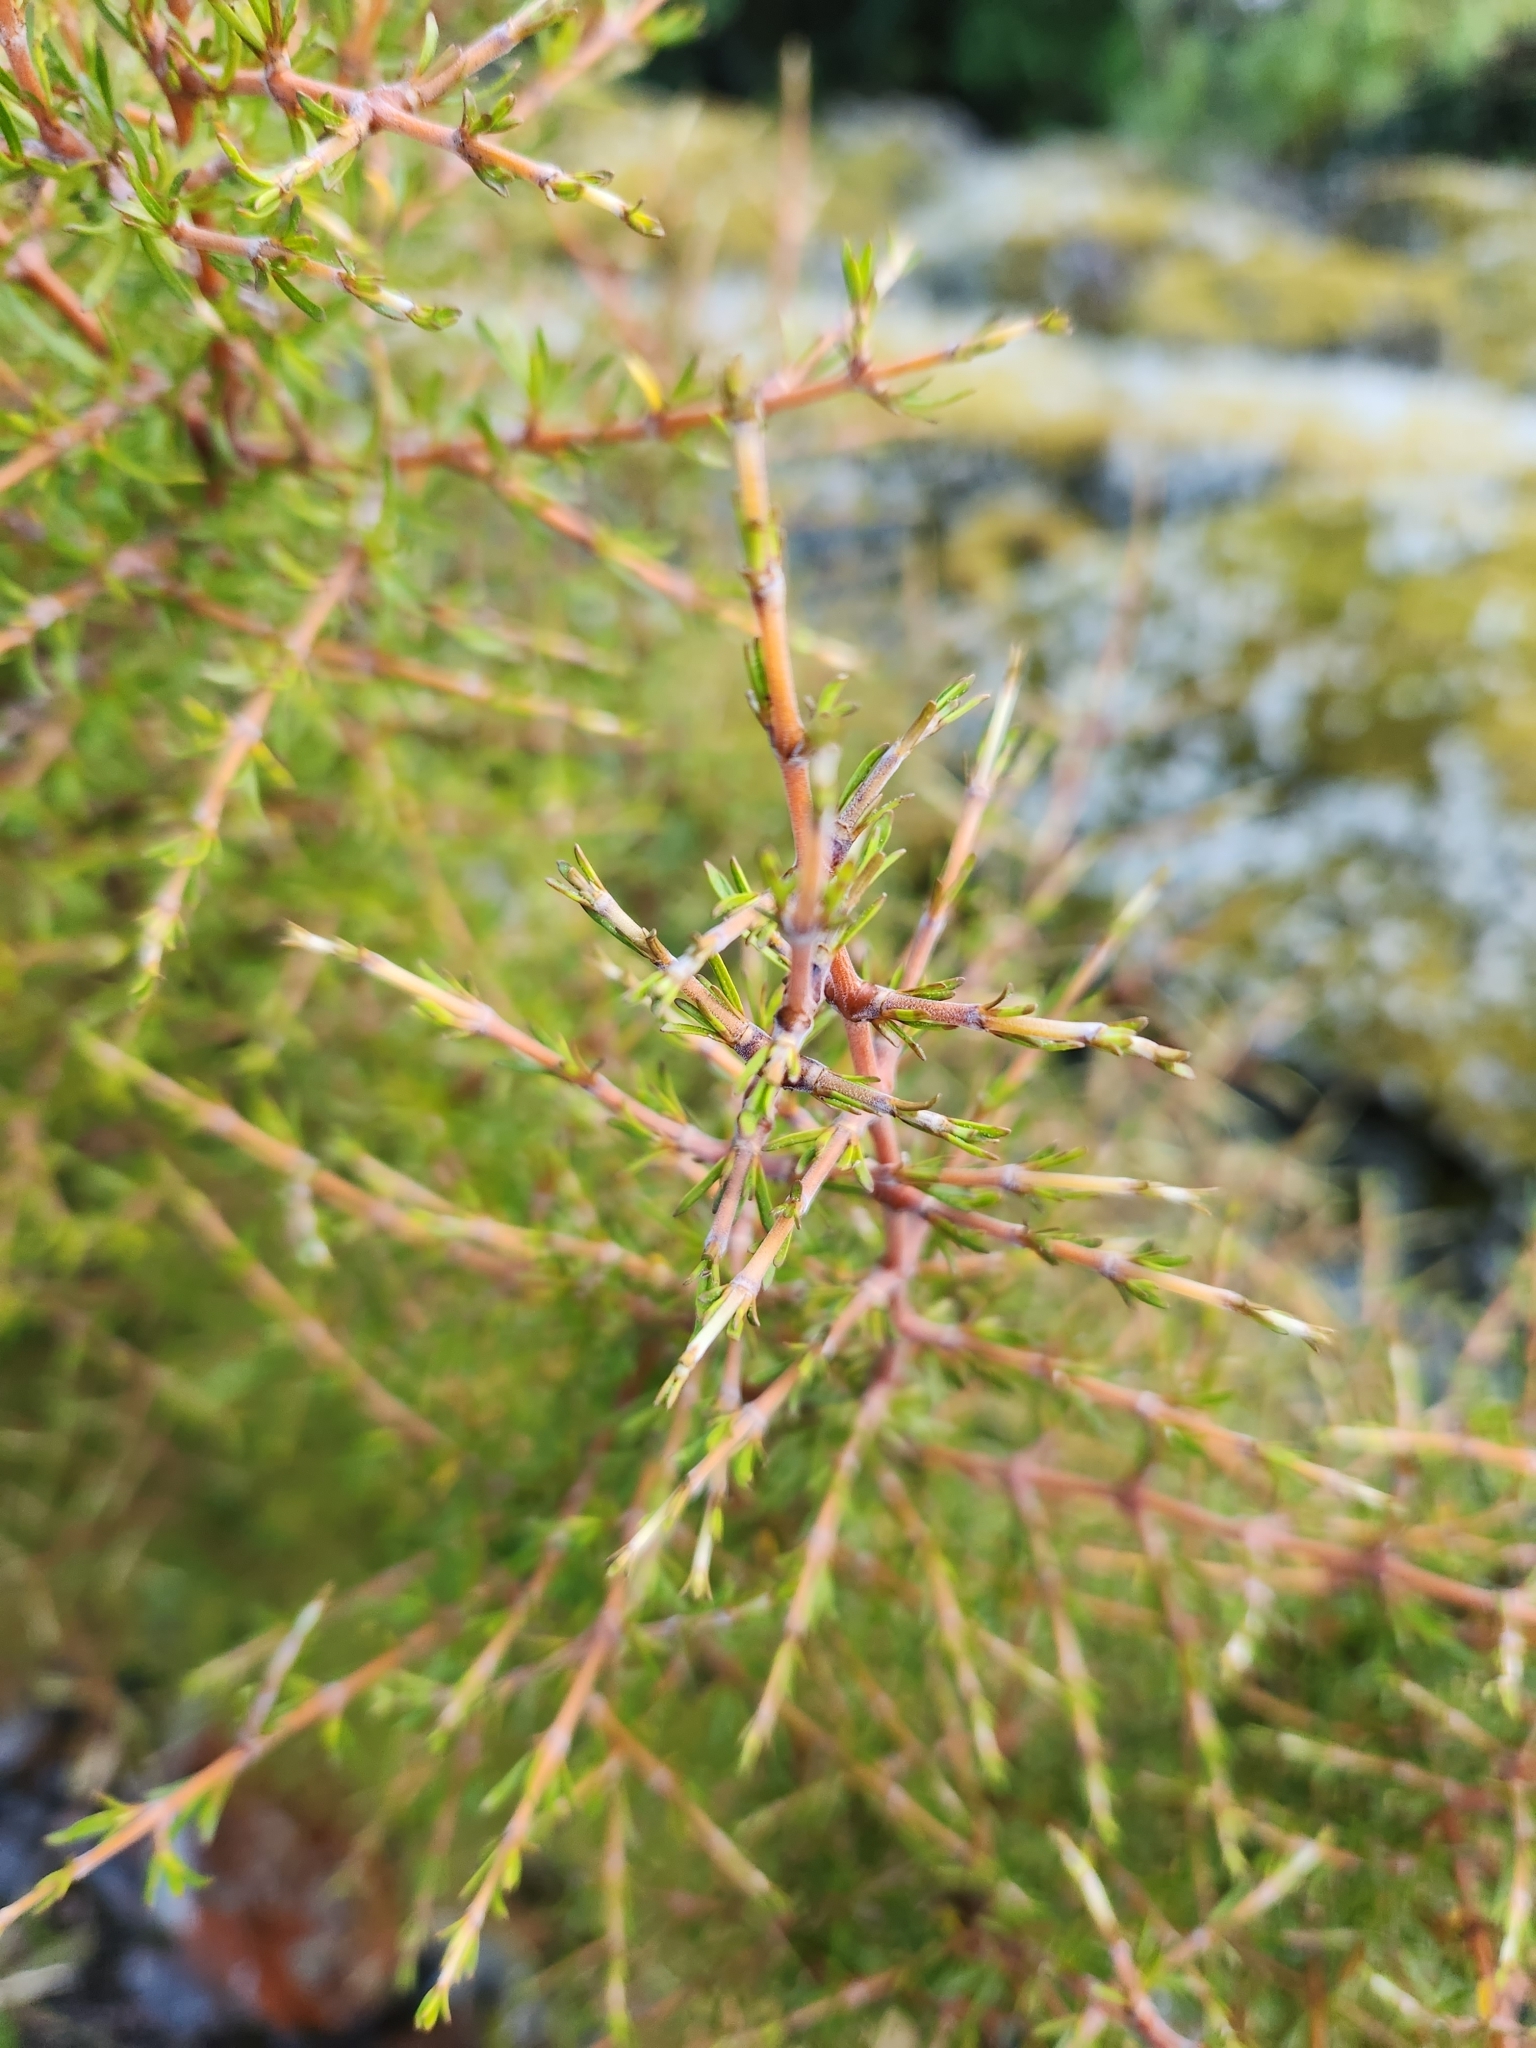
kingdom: Plantae
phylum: Tracheophyta
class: Magnoliopsida
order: Gentianales
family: Rubiaceae
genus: Coprosma
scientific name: Coprosma rugosa
